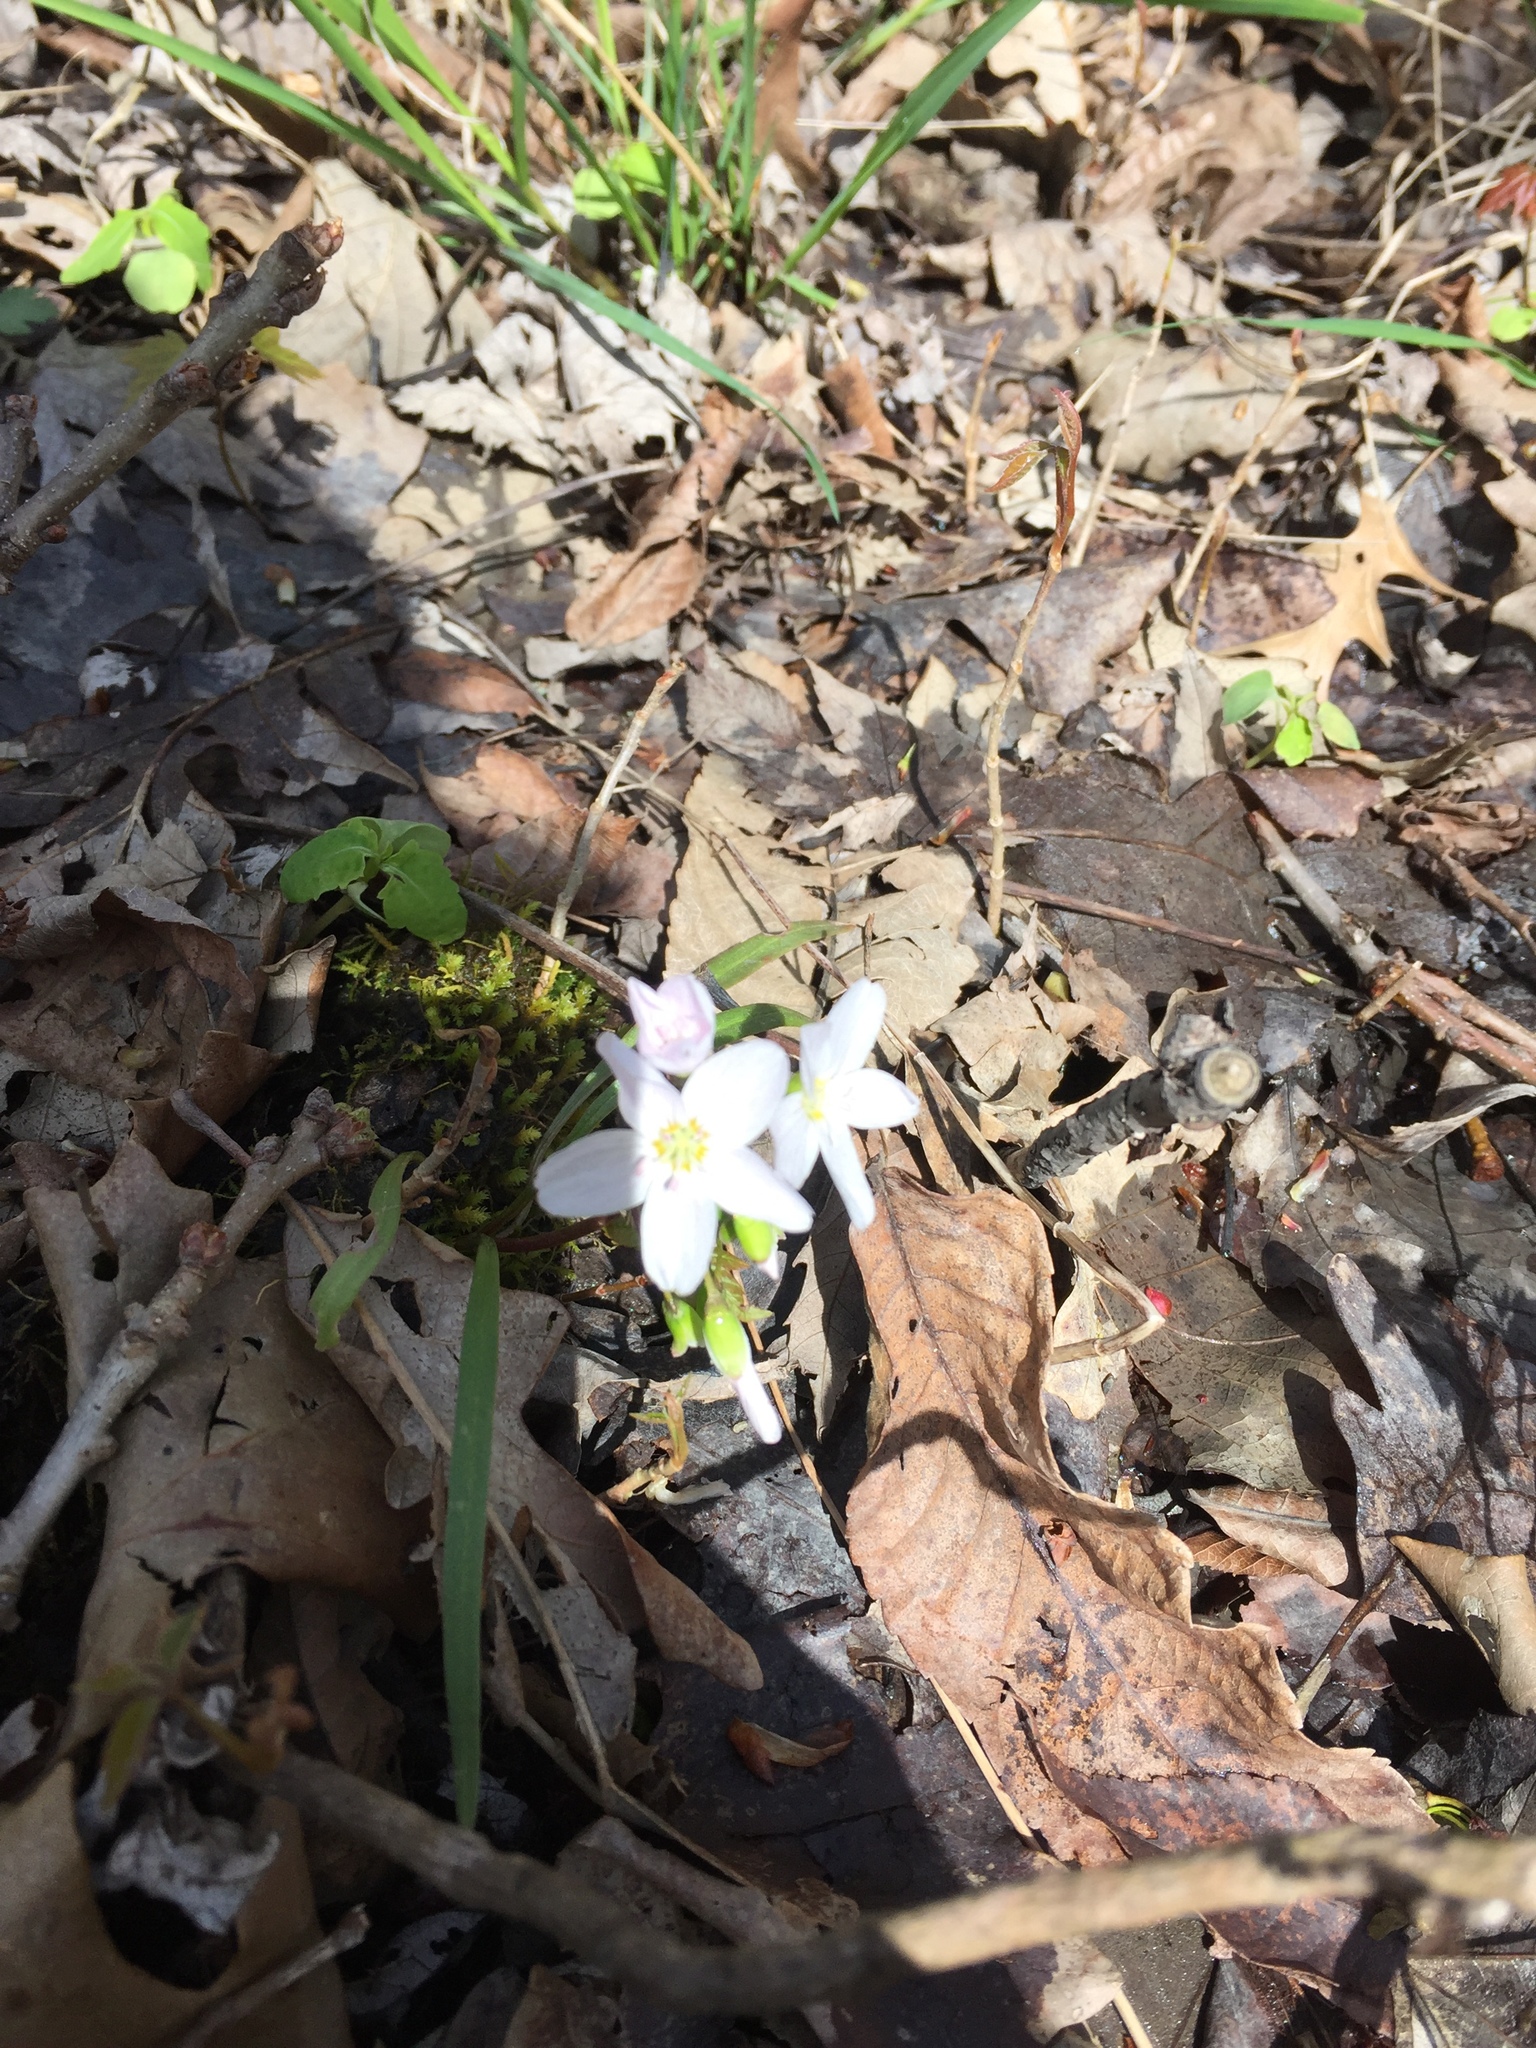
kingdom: Plantae
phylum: Tracheophyta
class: Magnoliopsida
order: Caryophyllales
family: Montiaceae
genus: Claytonia
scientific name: Claytonia virginica
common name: Virginia springbeauty
